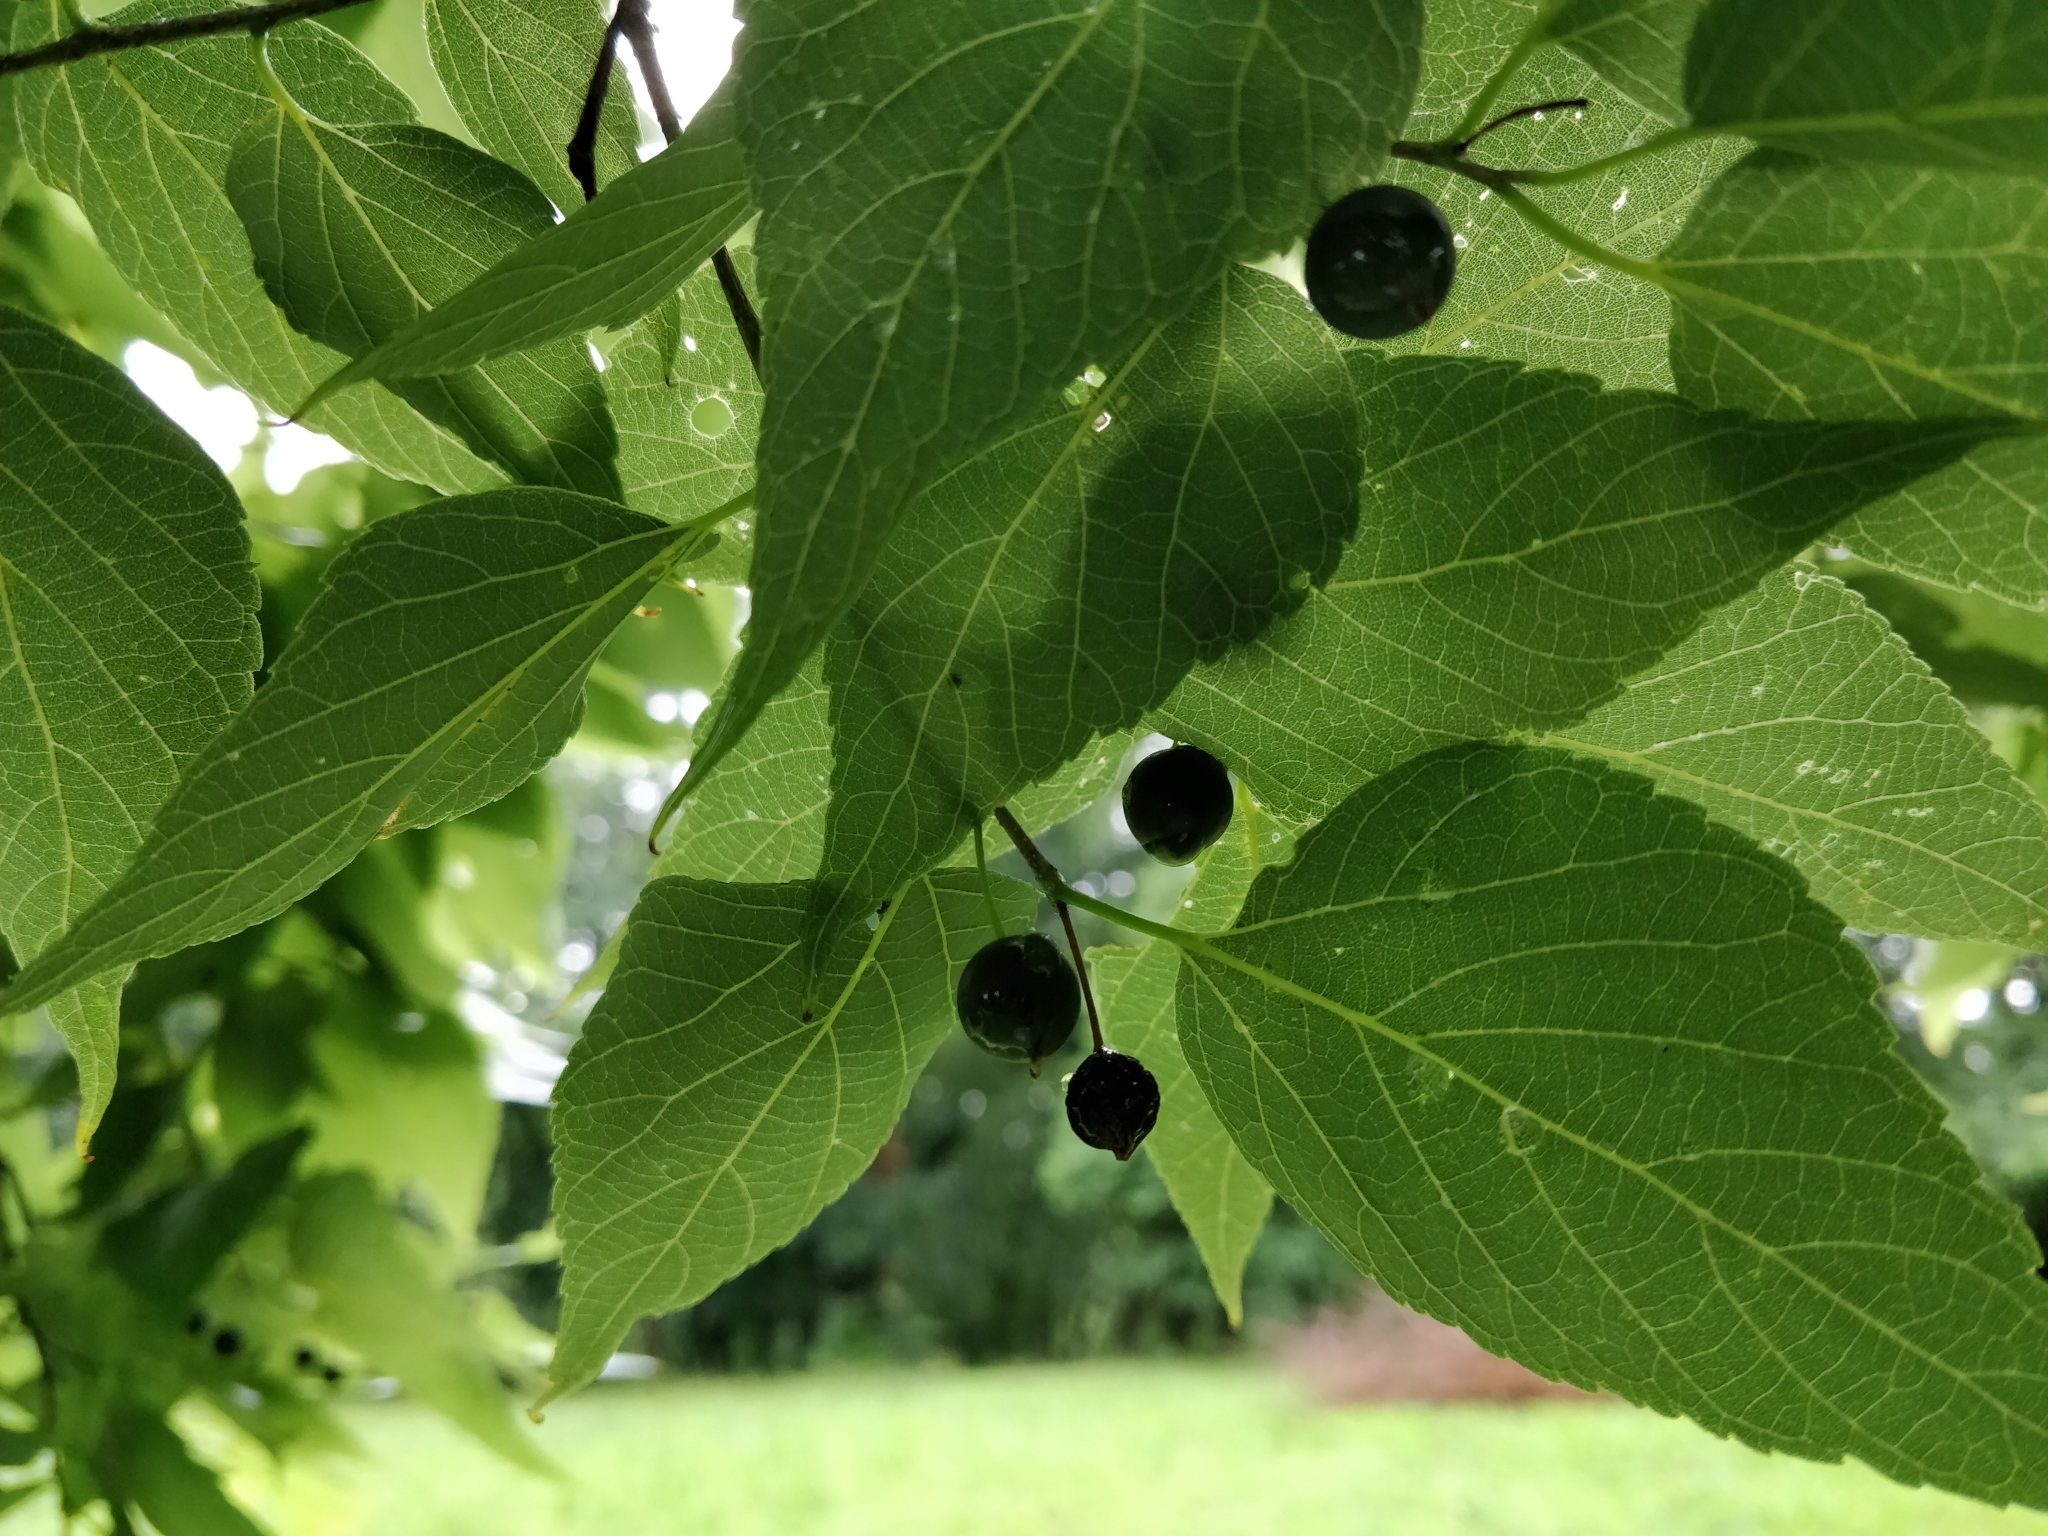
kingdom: Plantae
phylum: Tracheophyta
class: Magnoliopsida
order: Rosales
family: Cannabaceae
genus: Celtis
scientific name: Celtis occidentalis
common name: Common hackberry
